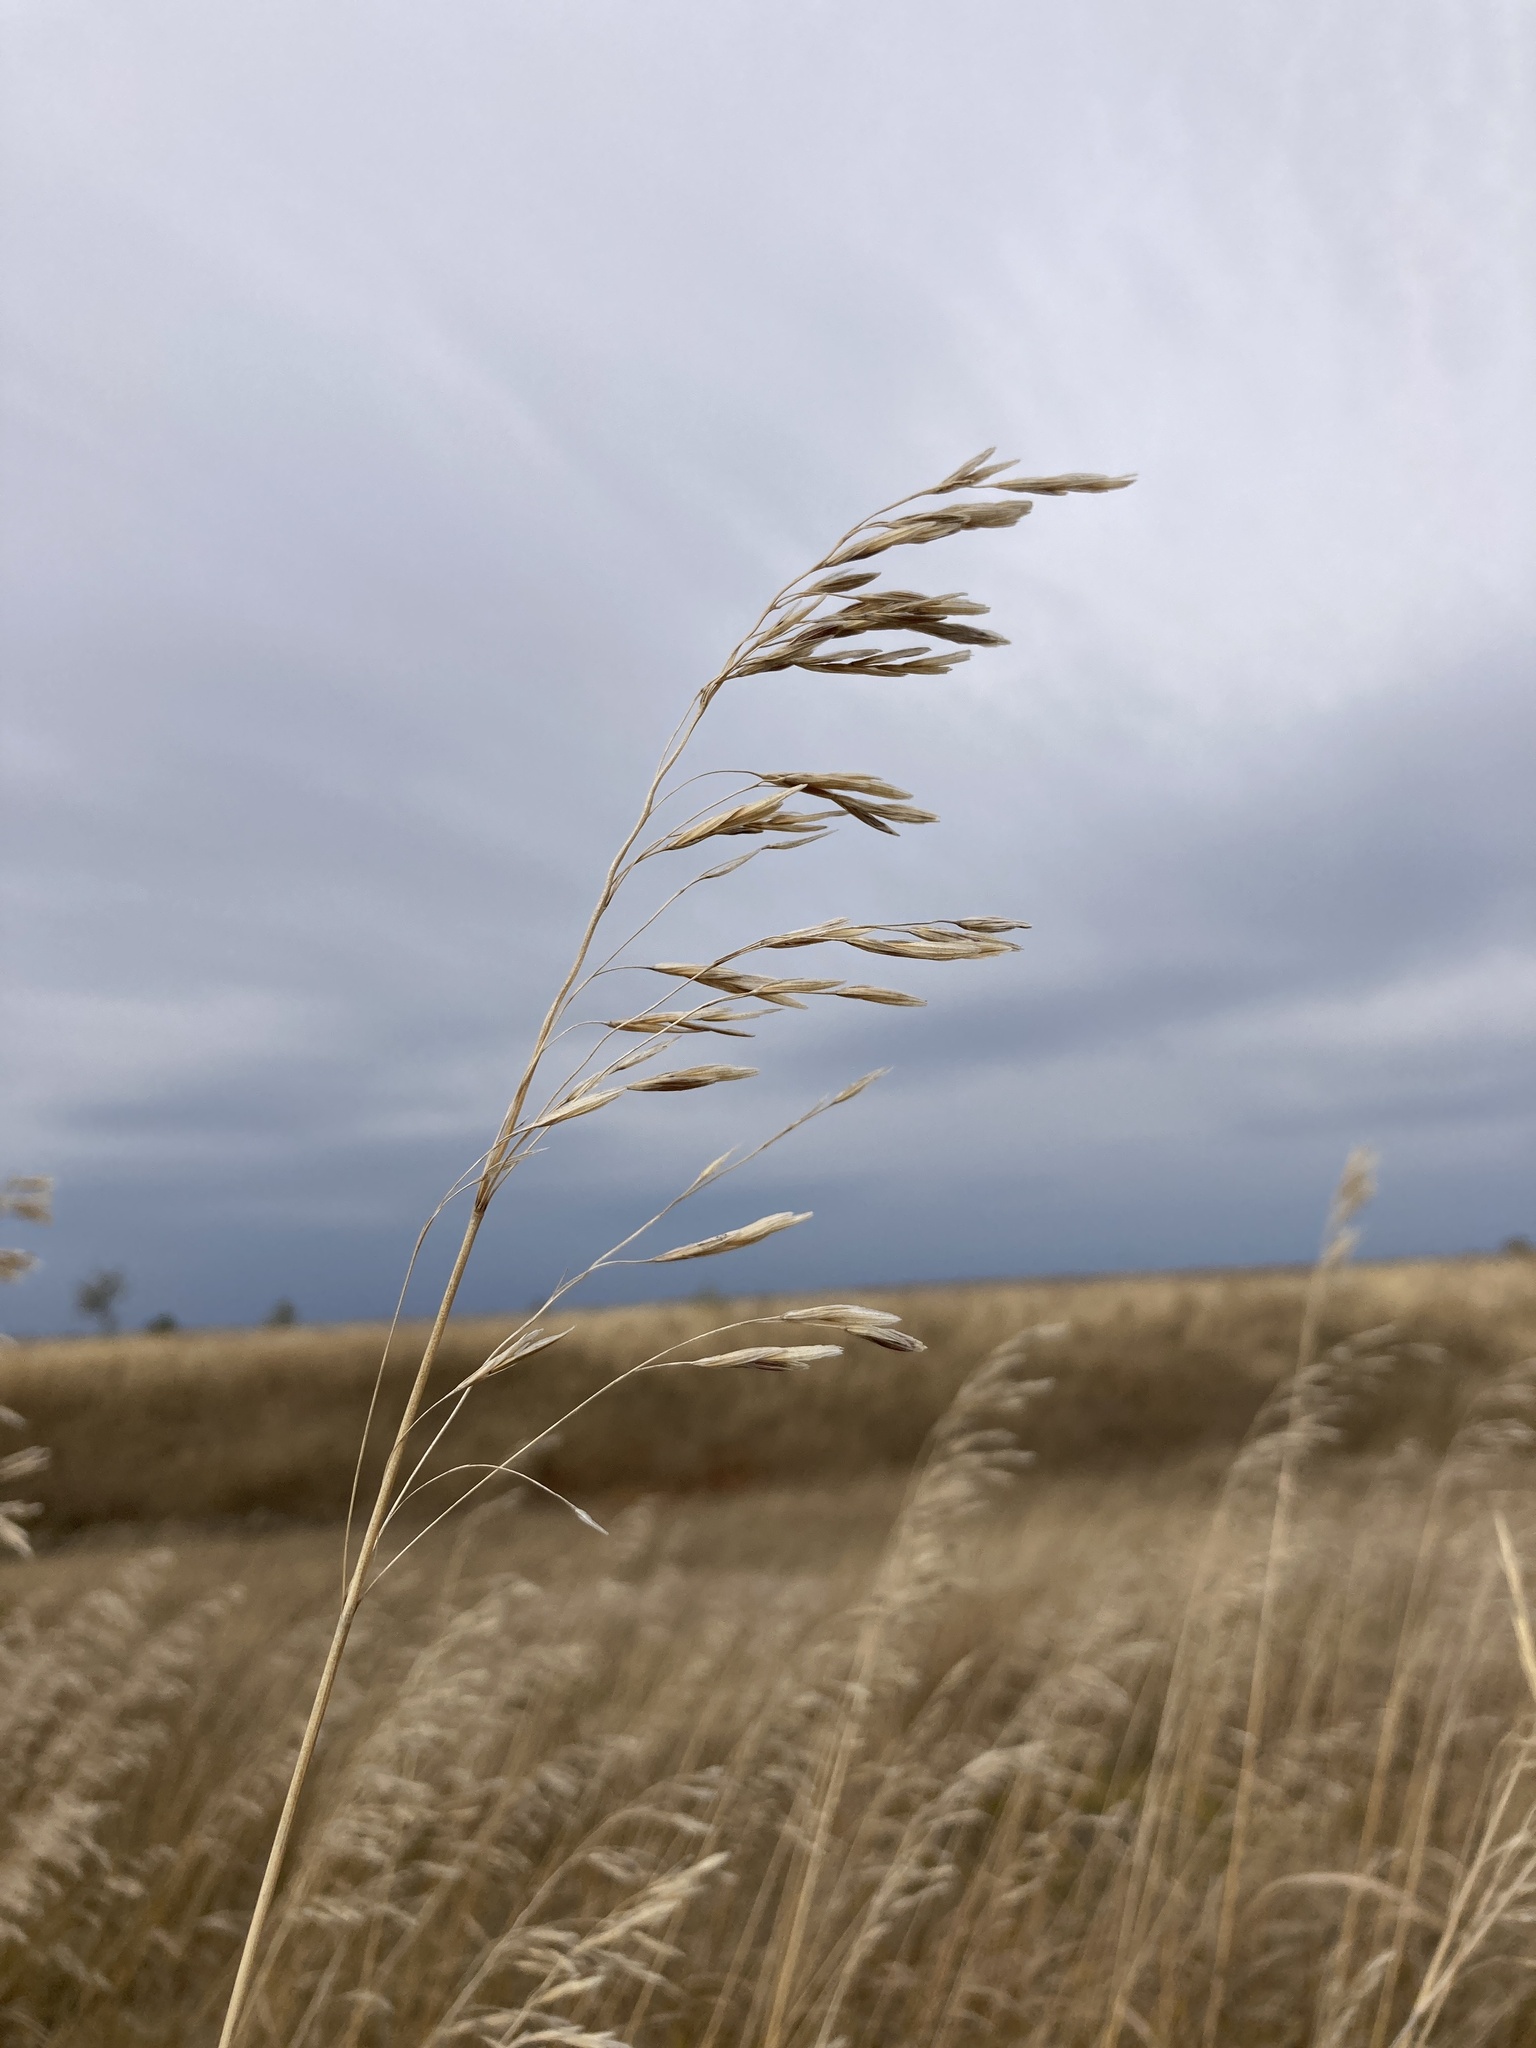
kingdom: Plantae
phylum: Tracheophyta
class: Liliopsida
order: Poales
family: Poaceae
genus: Bromus
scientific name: Bromus inermis
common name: Smooth brome
